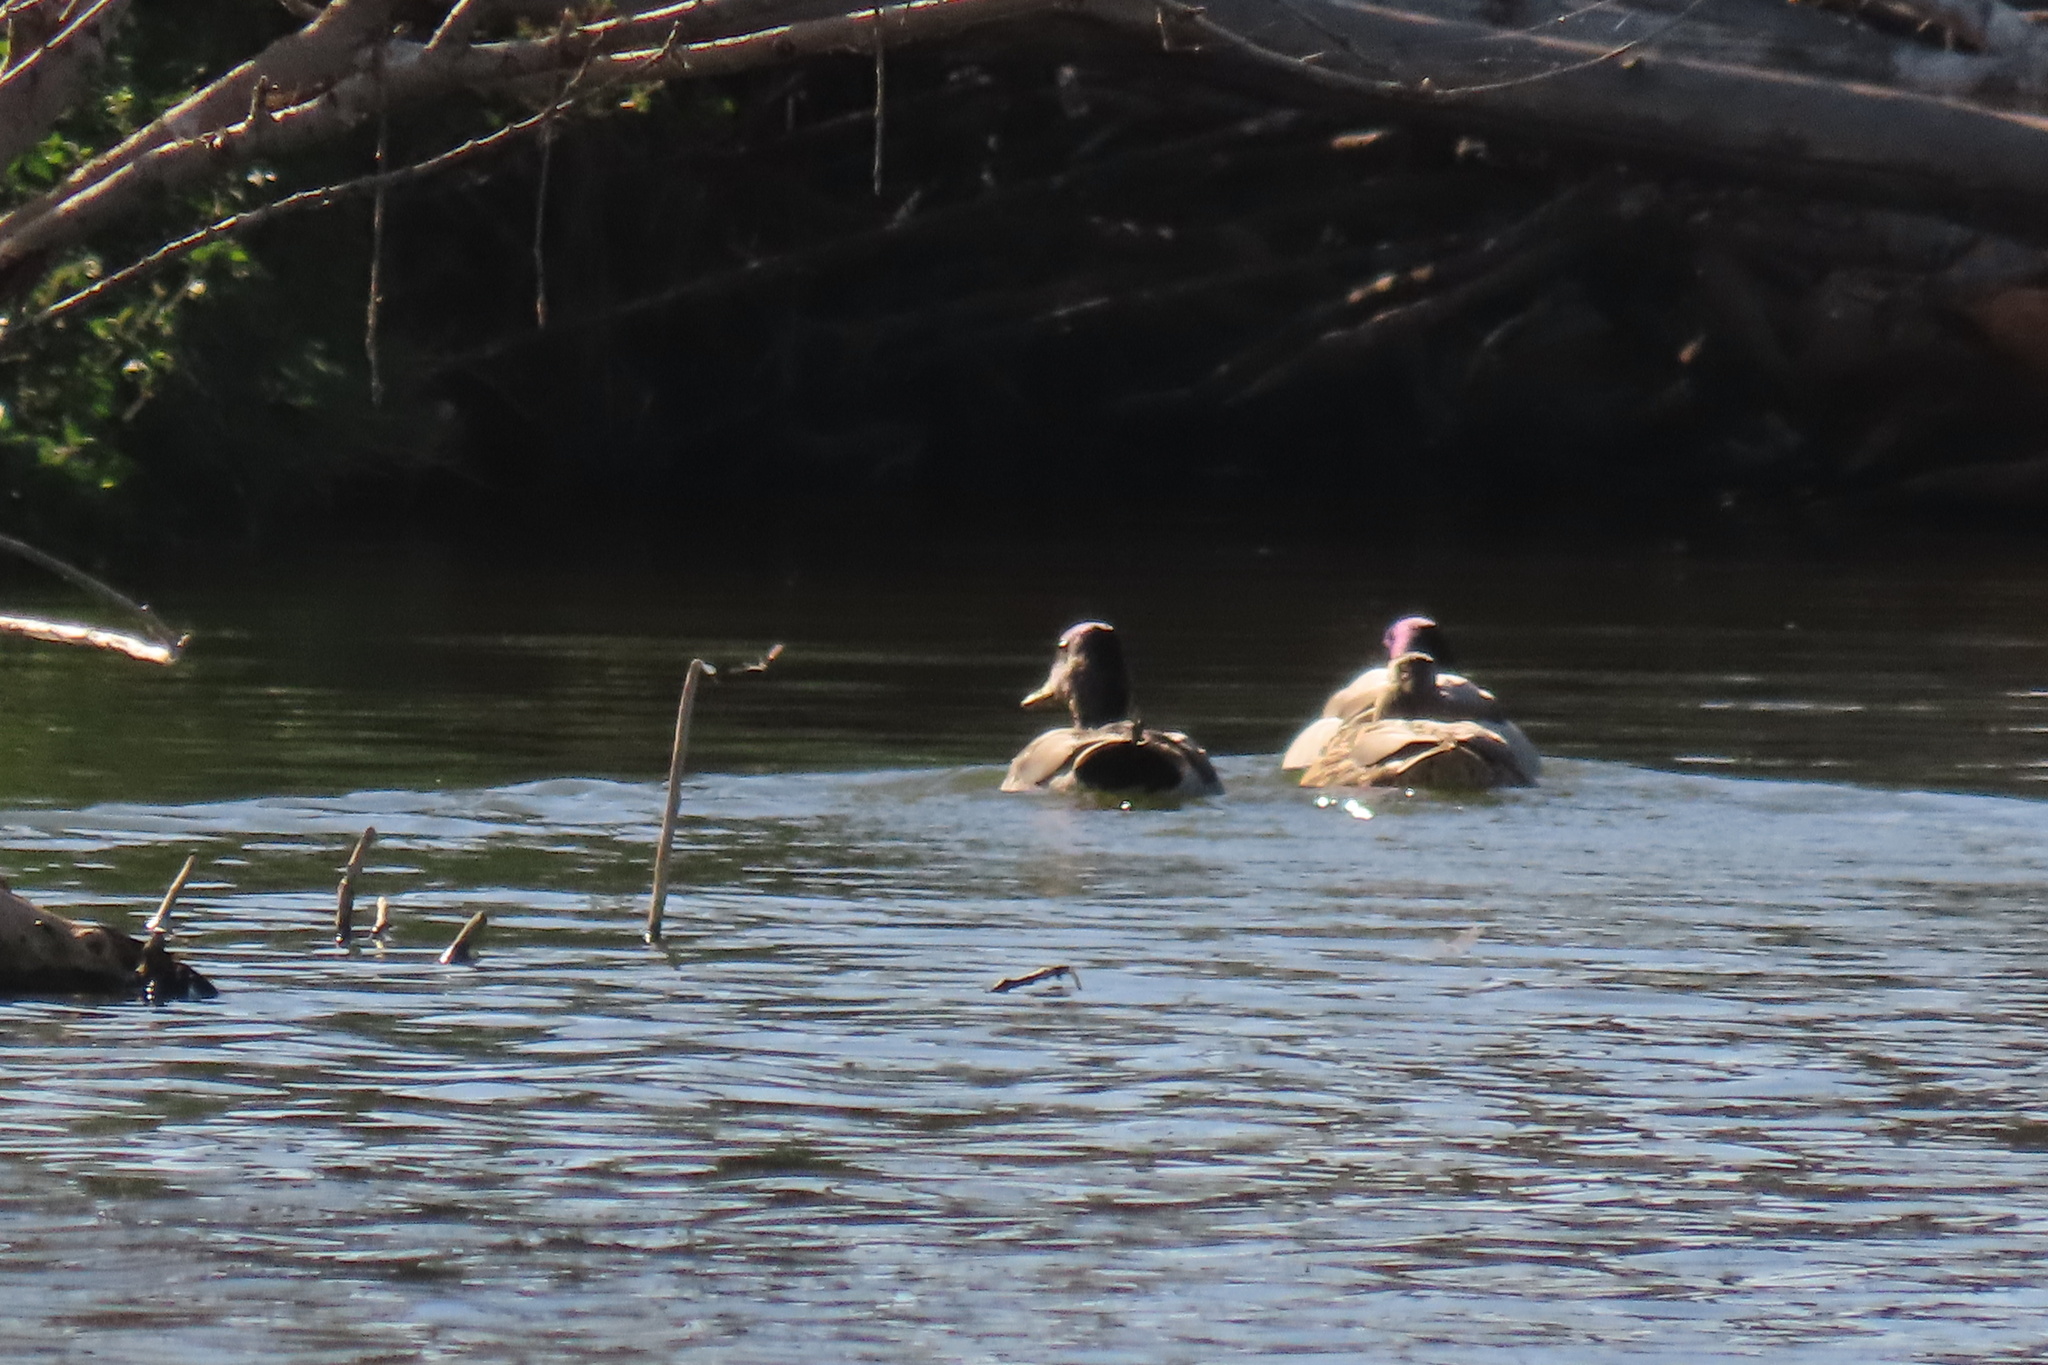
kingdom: Animalia
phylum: Chordata
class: Aves
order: Anseriformes
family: Anatidae
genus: Anas
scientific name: Anas platyrhynchos
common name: Mallard
